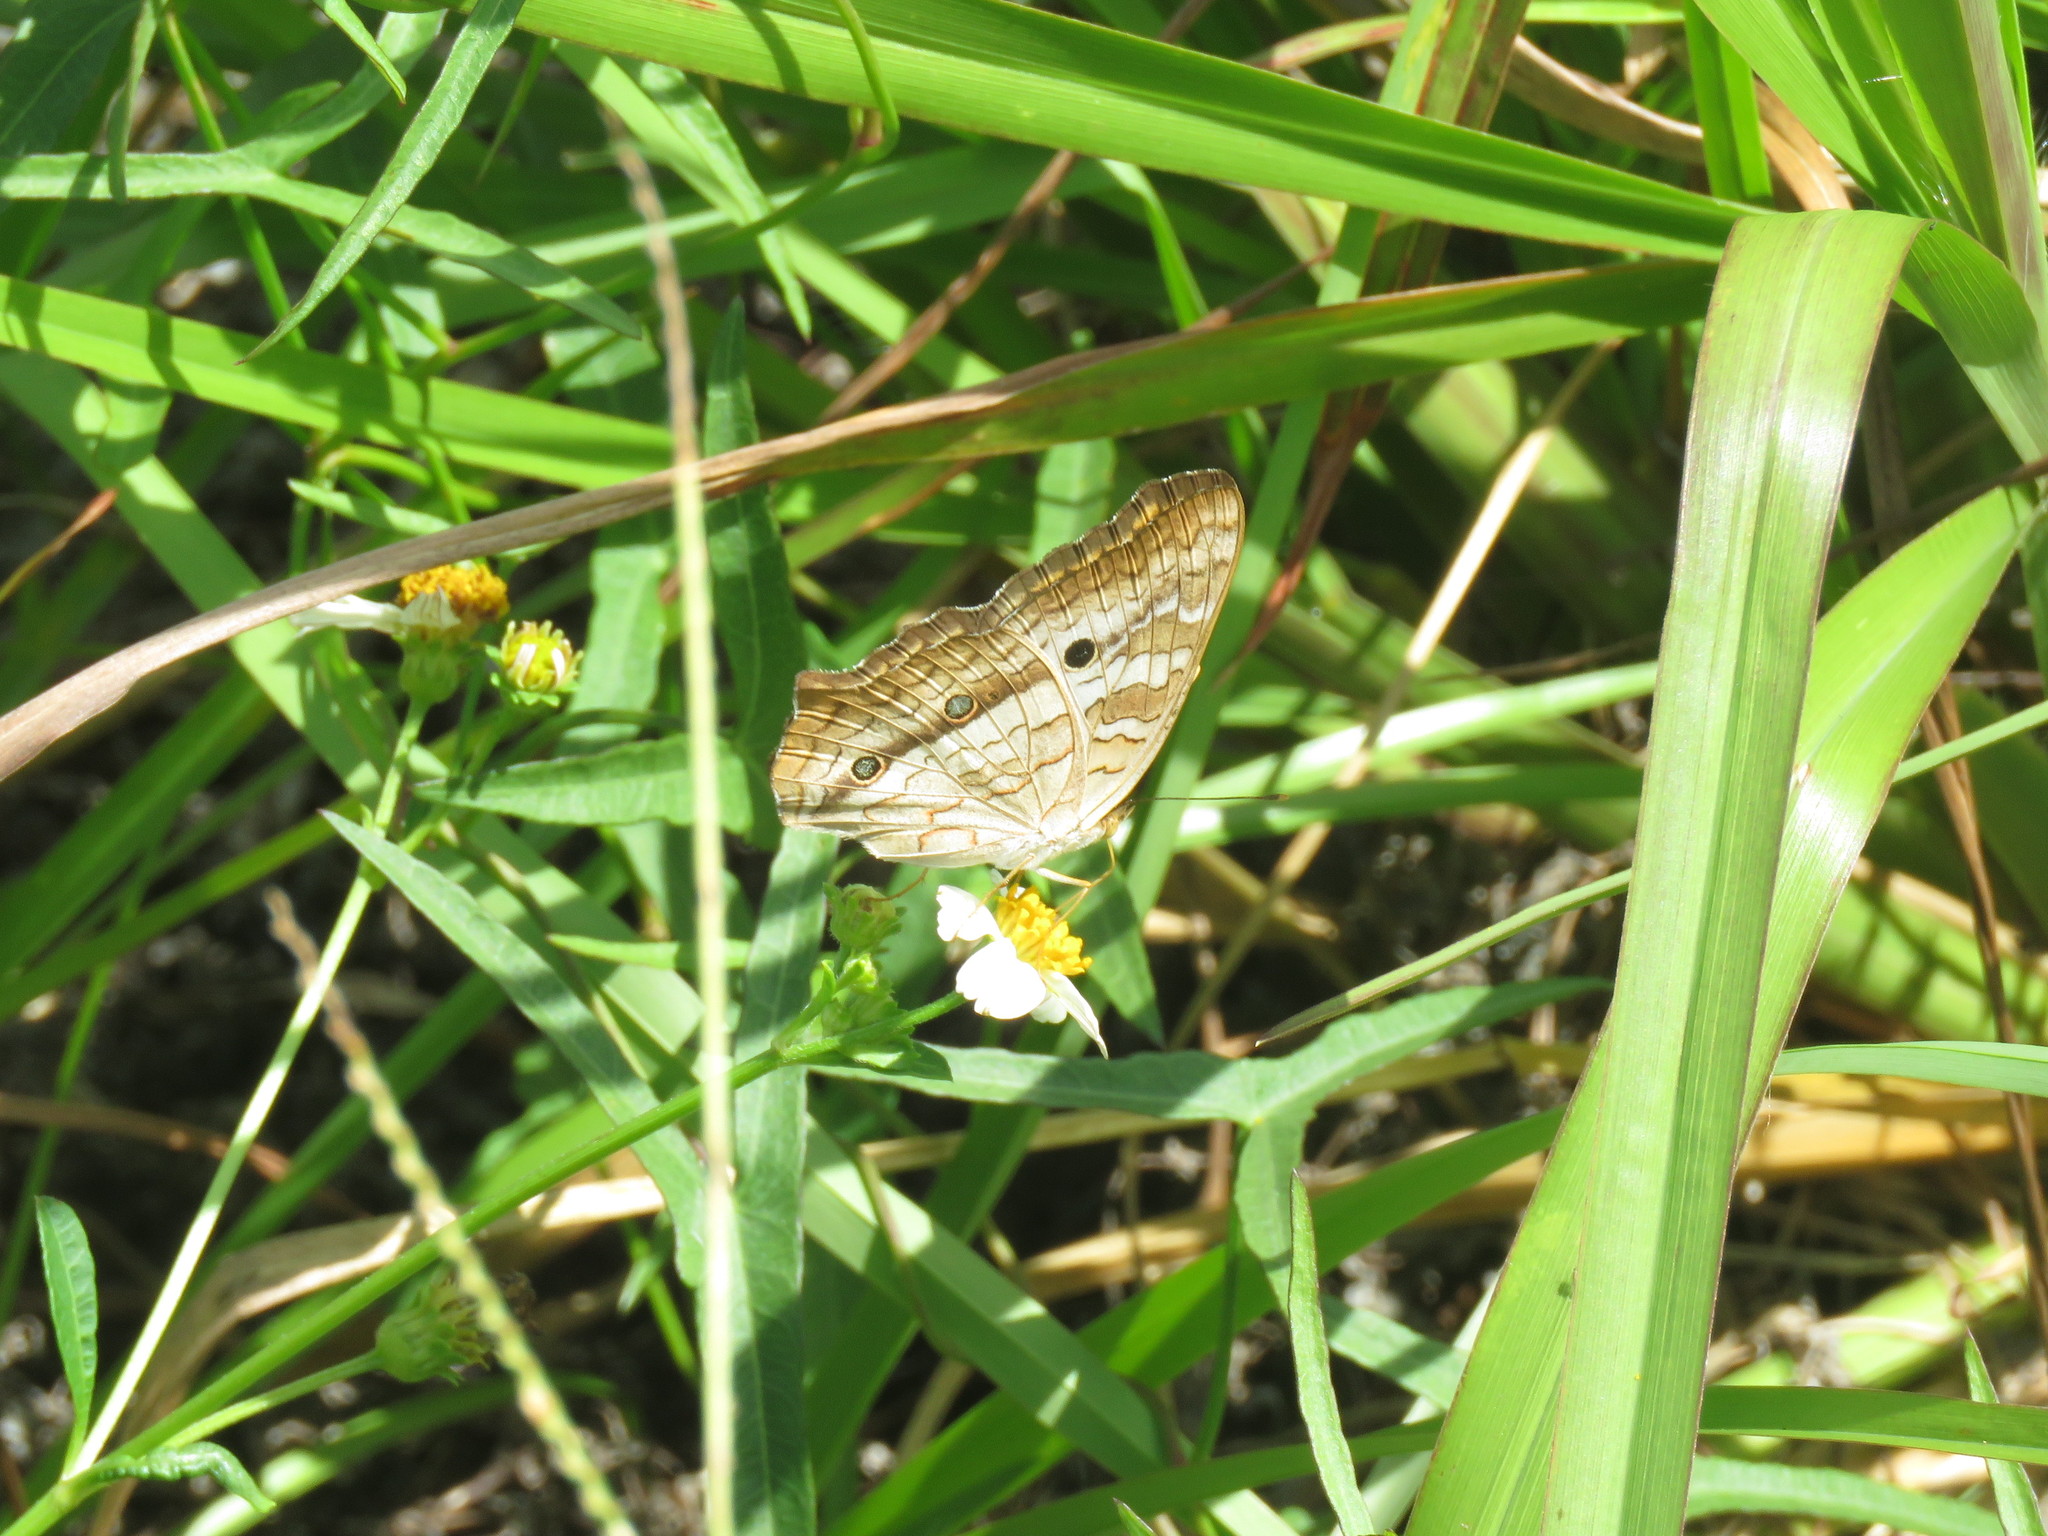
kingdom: Animalia
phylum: Arthropoda
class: Insecta
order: Lepidoptera
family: Nymphalidae
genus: Anartia
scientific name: Anartia jatrophae
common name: White peacock
